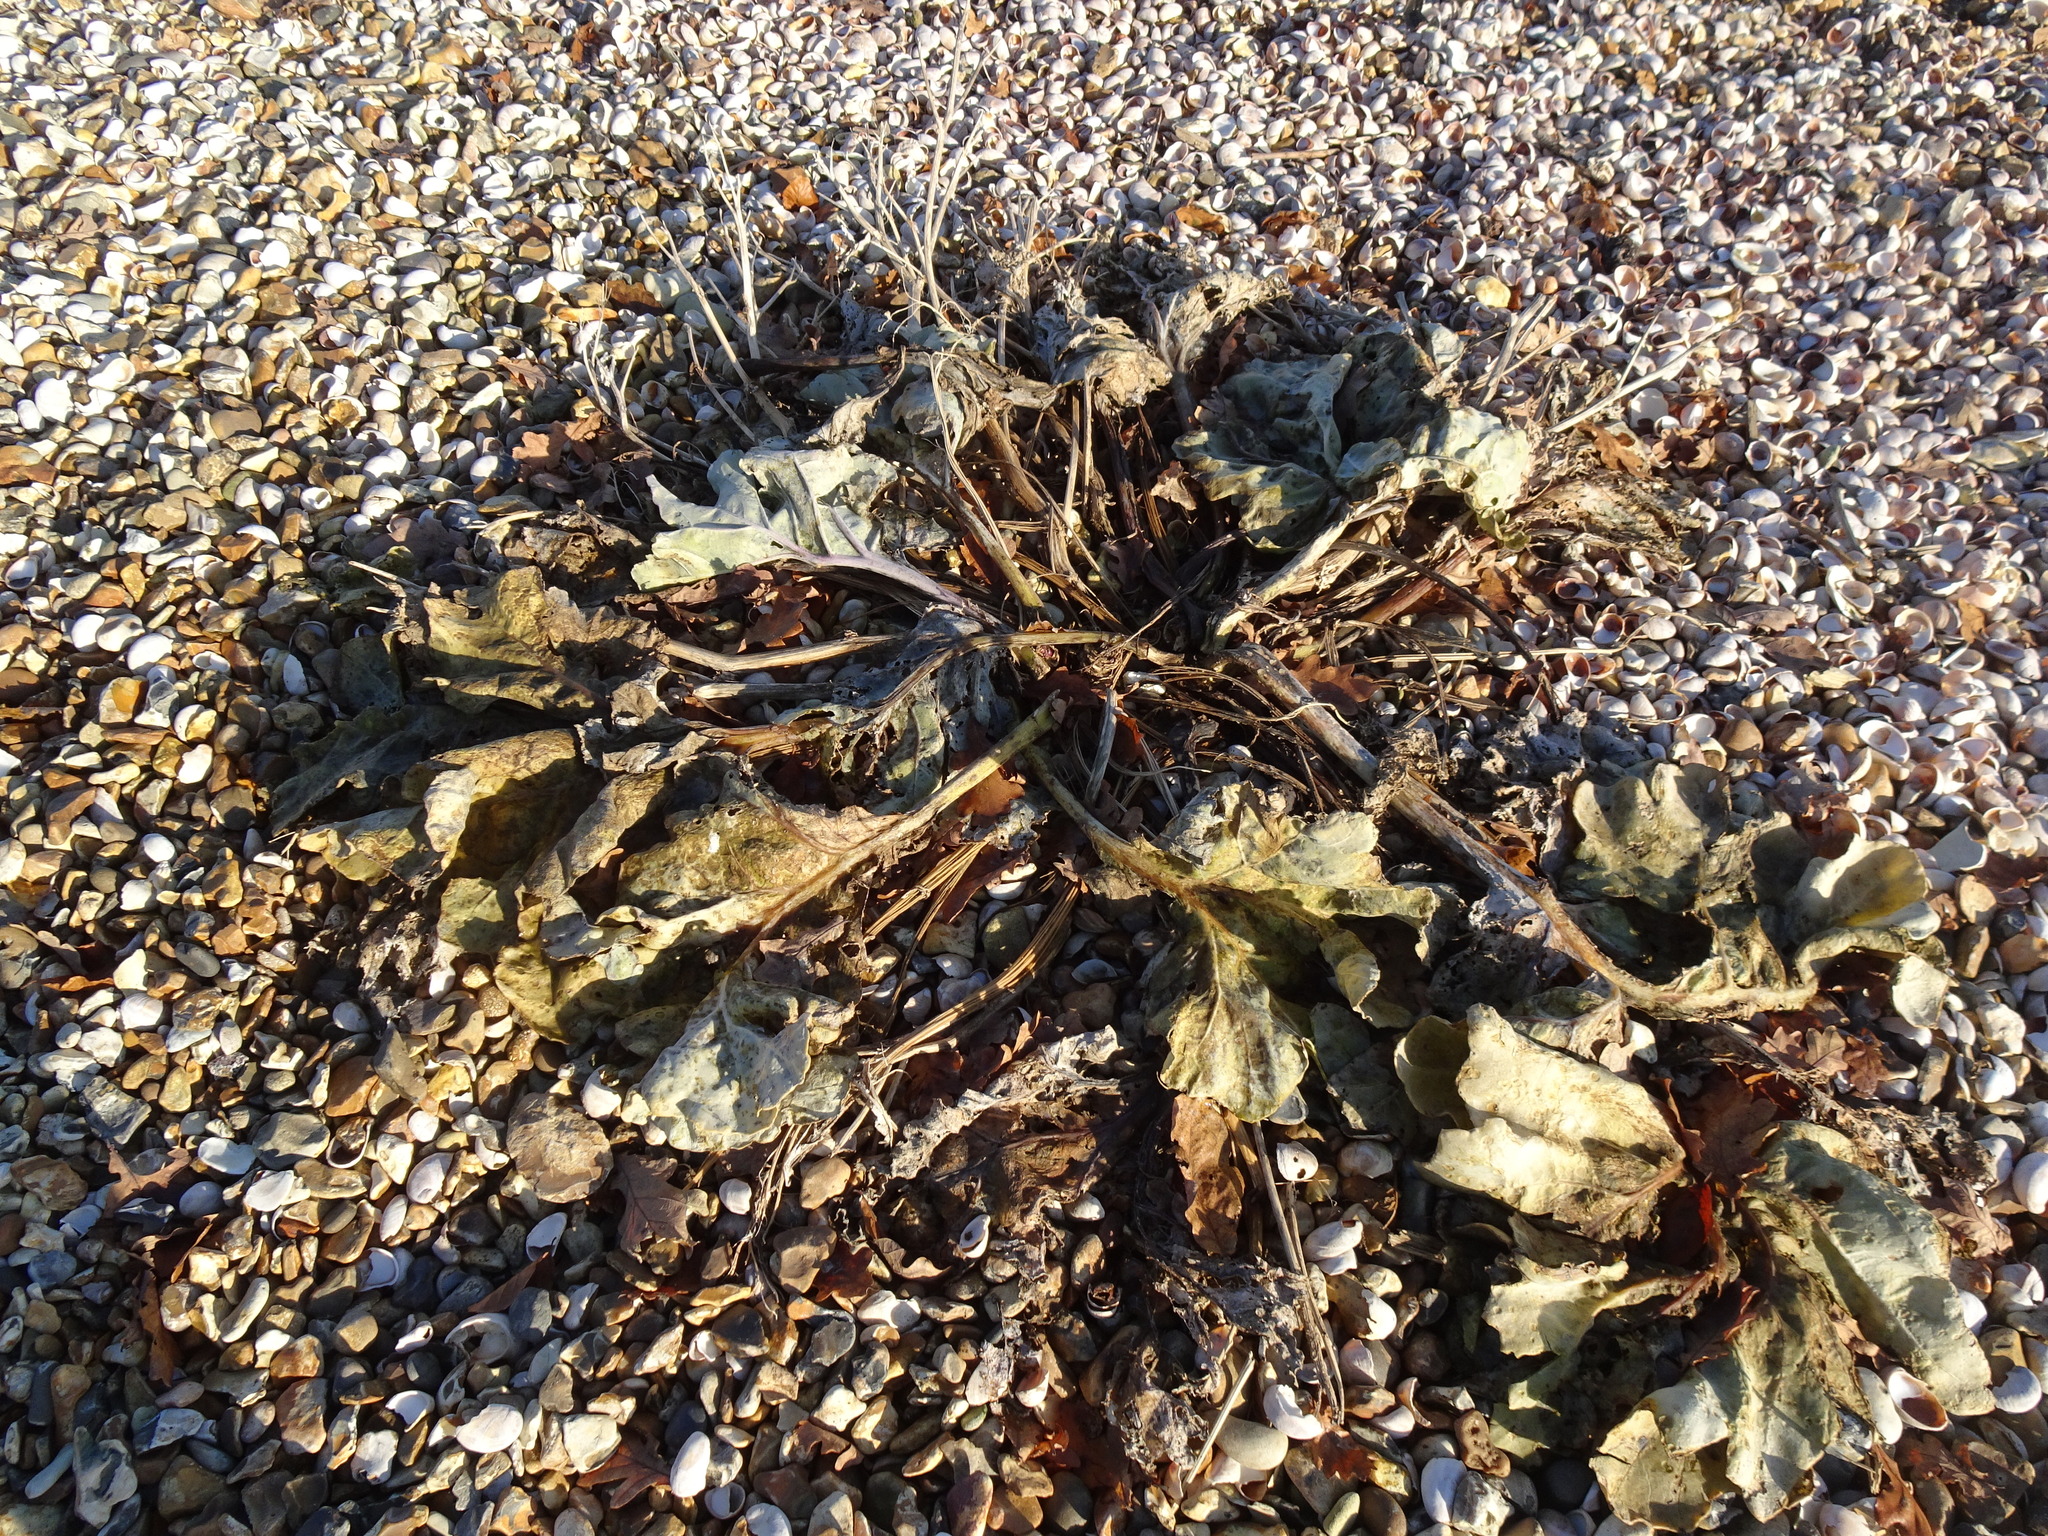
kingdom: Plantae
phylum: Tracheophyta
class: Magnoliopsida
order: Brassicales
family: Brassicaceae
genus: Crambe
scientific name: Crambe maritima
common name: Sea-kale
